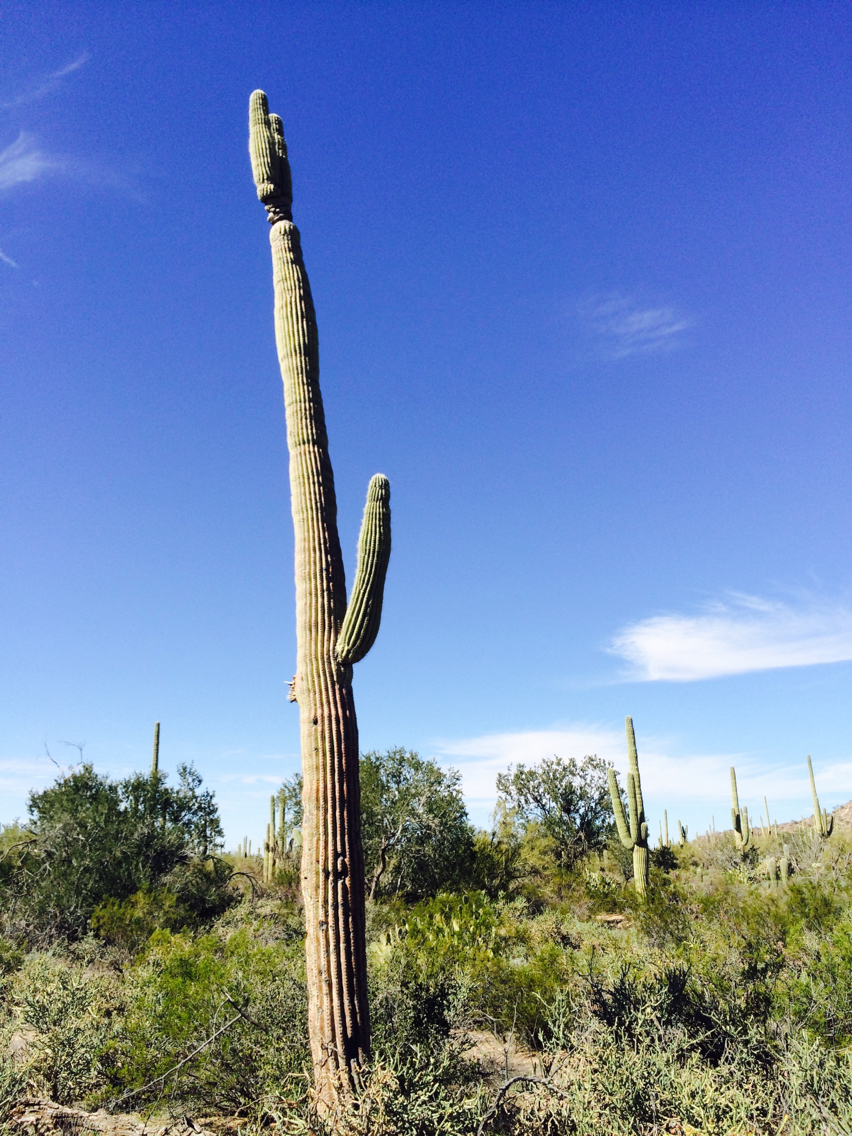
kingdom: Plantae
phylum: Tracheophyta
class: Magnoliopsida
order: Caryophyllales
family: Cactaceae
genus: Carnegiea
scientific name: Carnegiea gigantea
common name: Saguaro
